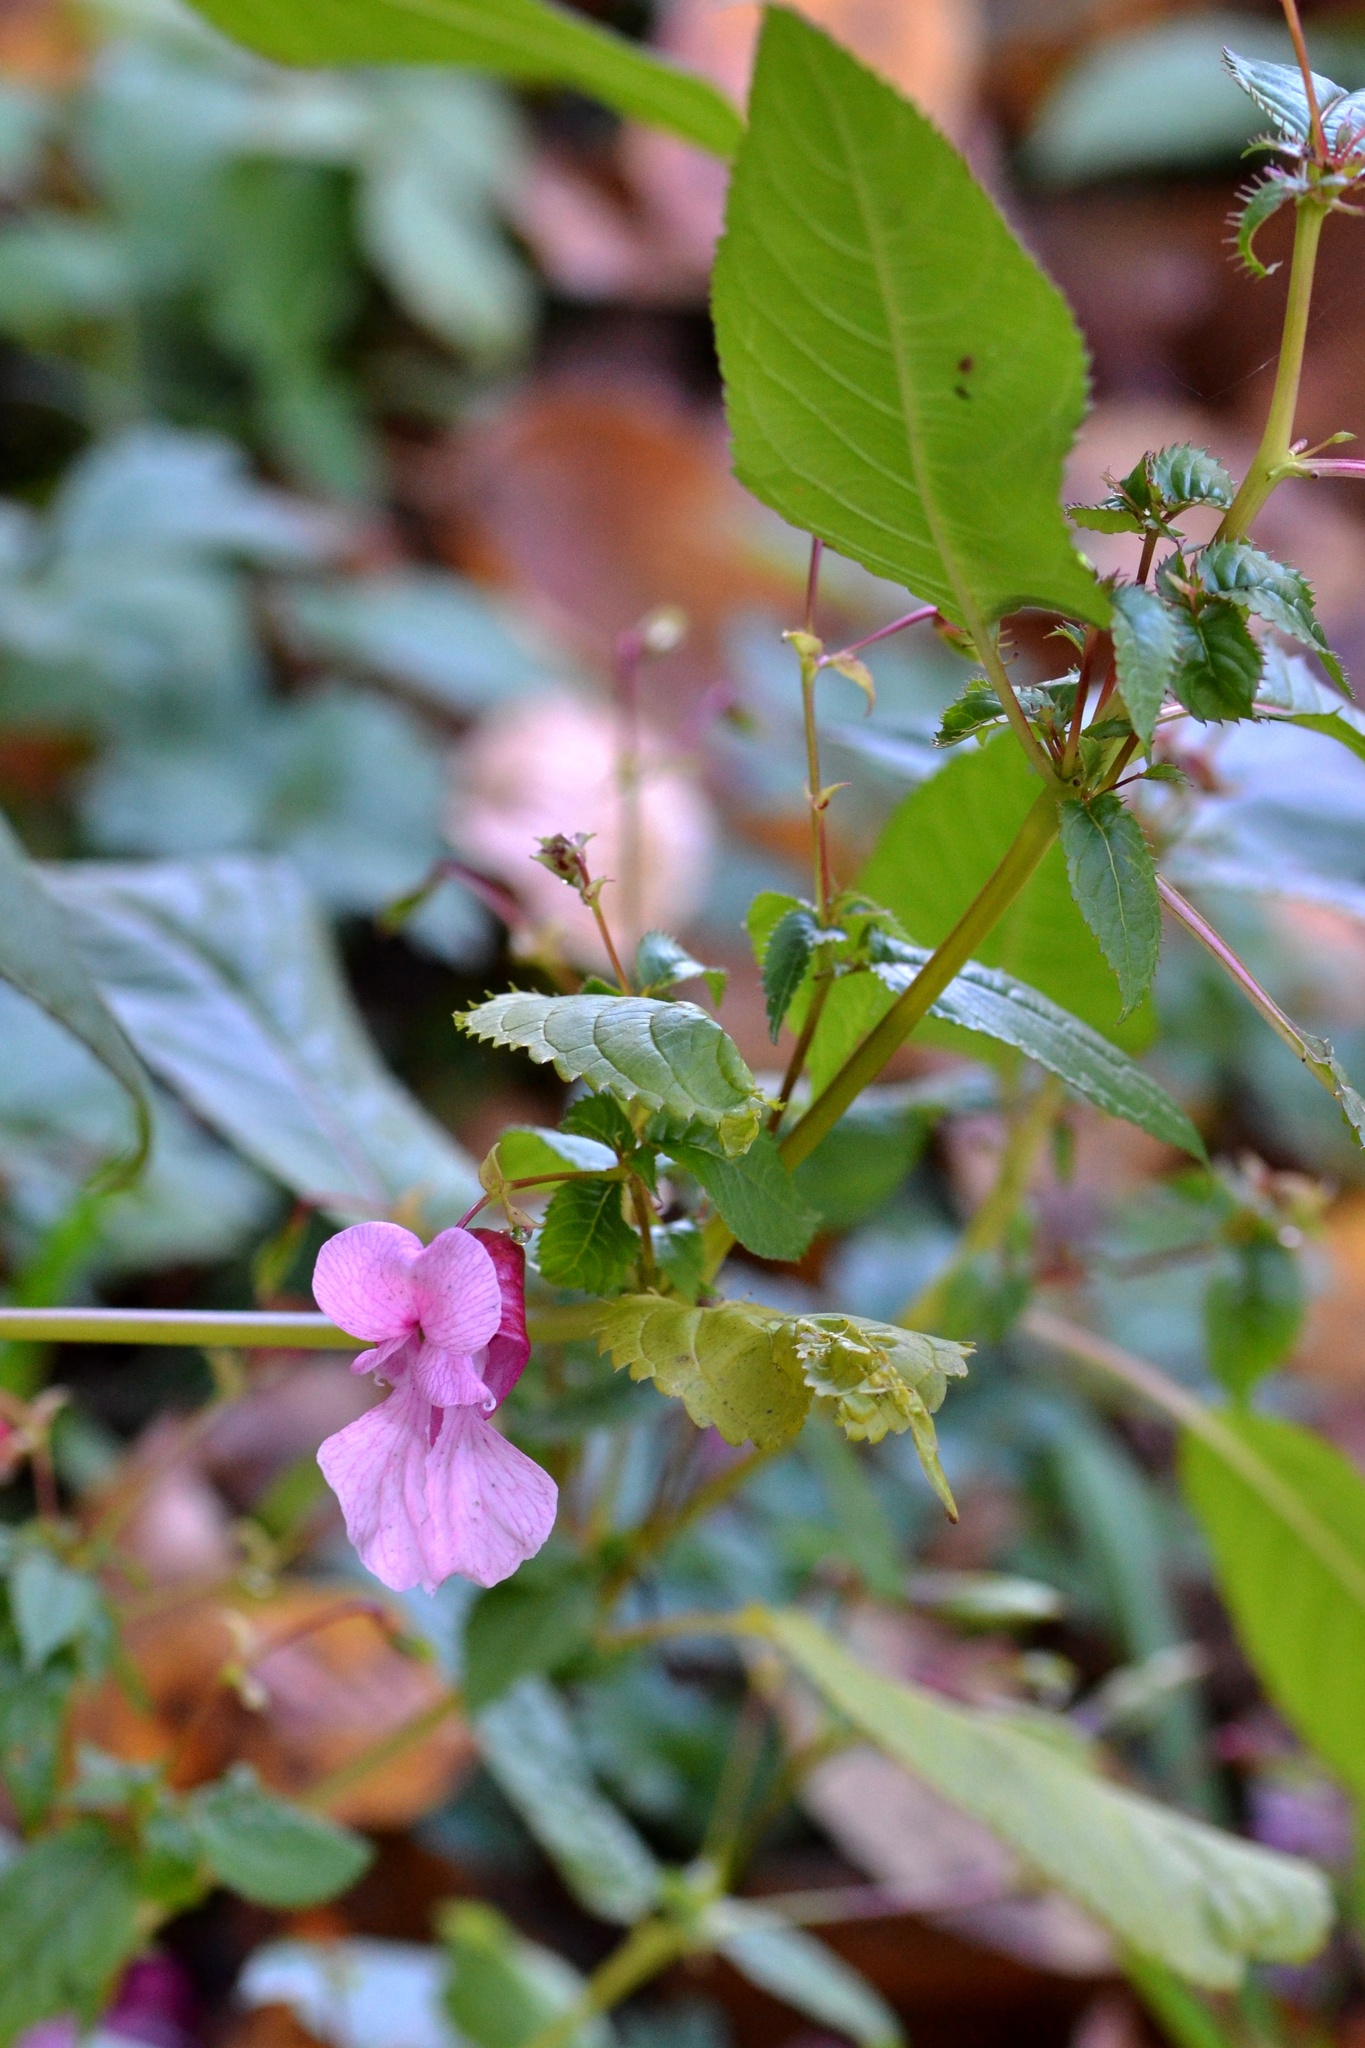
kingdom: Plantae
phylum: Tracheophyta
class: Magnoliopsida
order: Ericales
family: Balsaminaceae
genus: Impatiens
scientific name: Impatiens glandulifera
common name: Himalayan balsam
